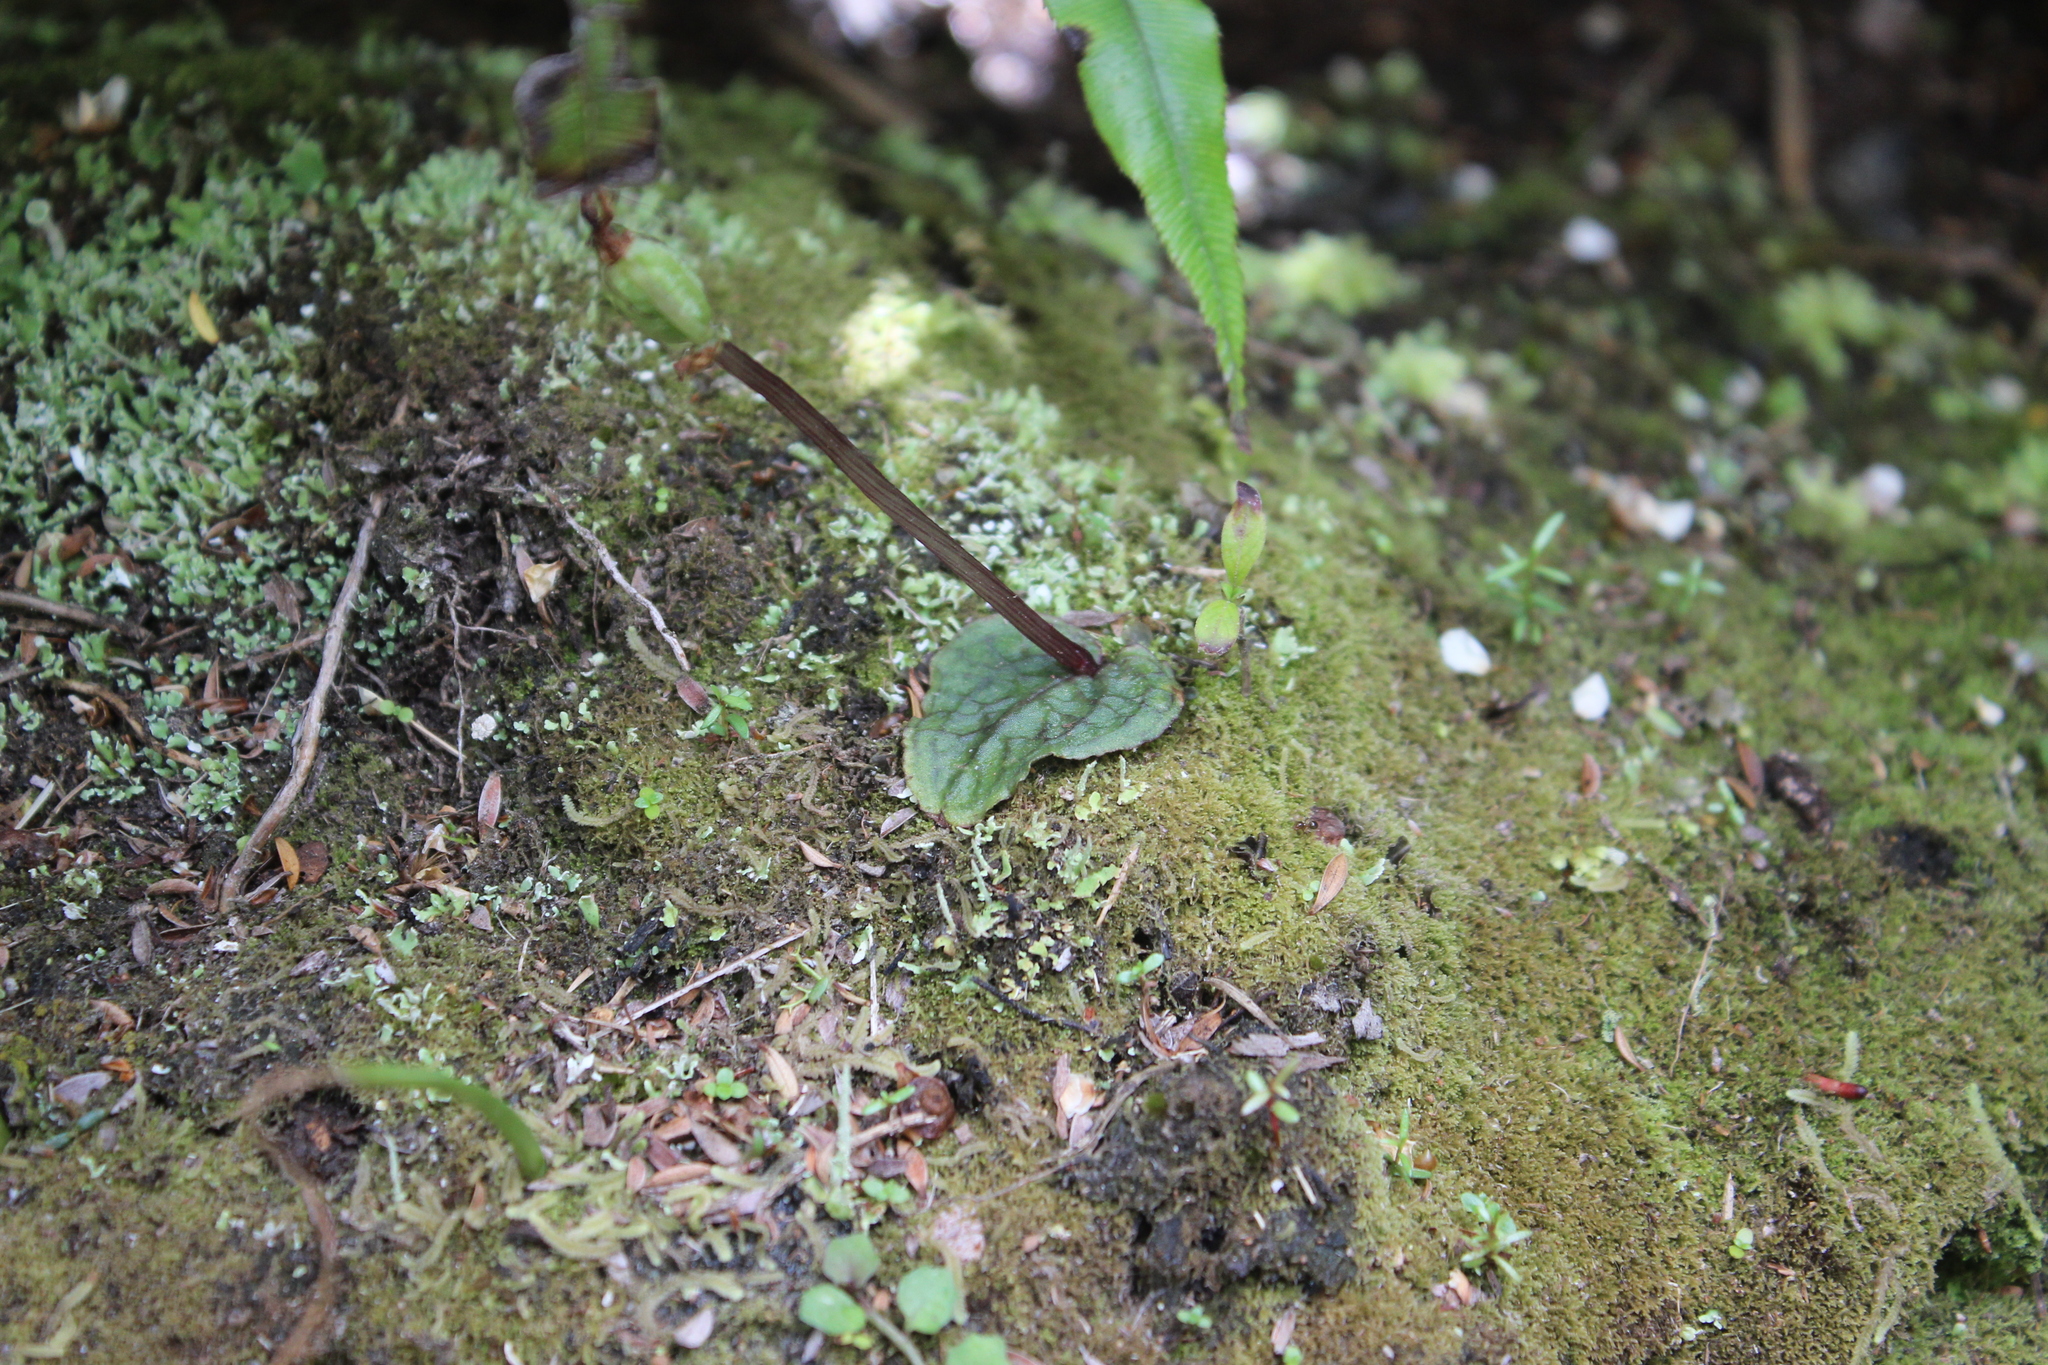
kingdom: Plantae
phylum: Tracheophyta
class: Liliopsida
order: Asparagales
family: Orchidaceae
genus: Corybas
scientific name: Corybas oblongus
